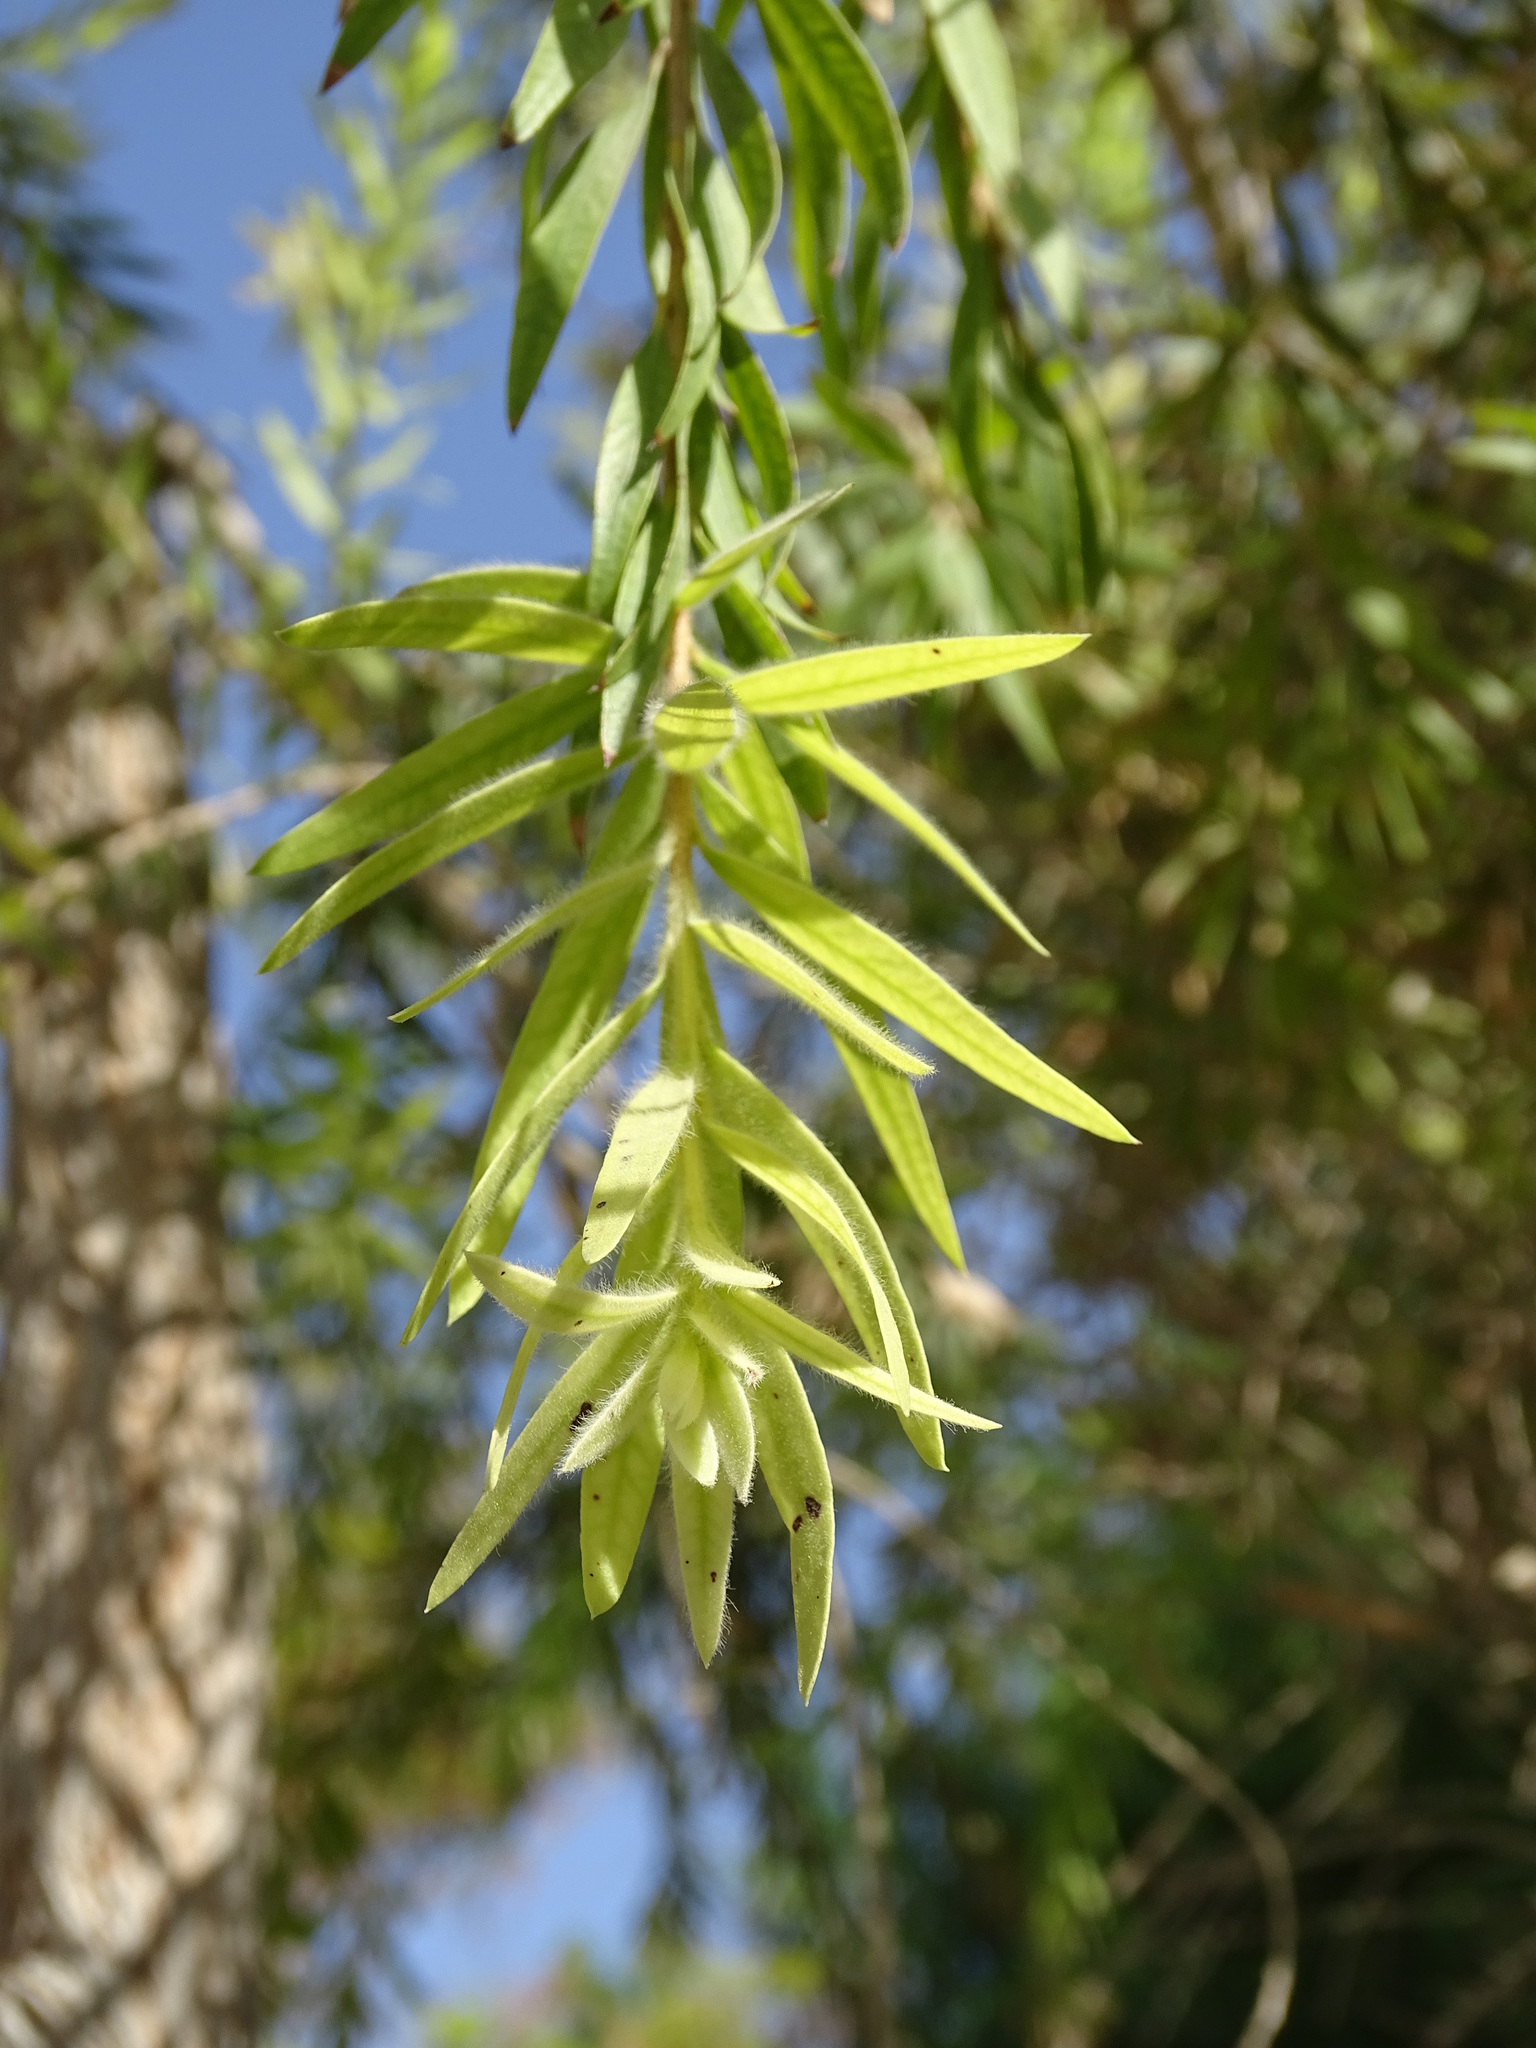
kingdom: Plantae
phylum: Tracheophyta
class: Magnoliopsida
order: Myrtales
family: Myrtaceae
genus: Callistemon
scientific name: Callistemon viminalis
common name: Drooping bottlebrush
